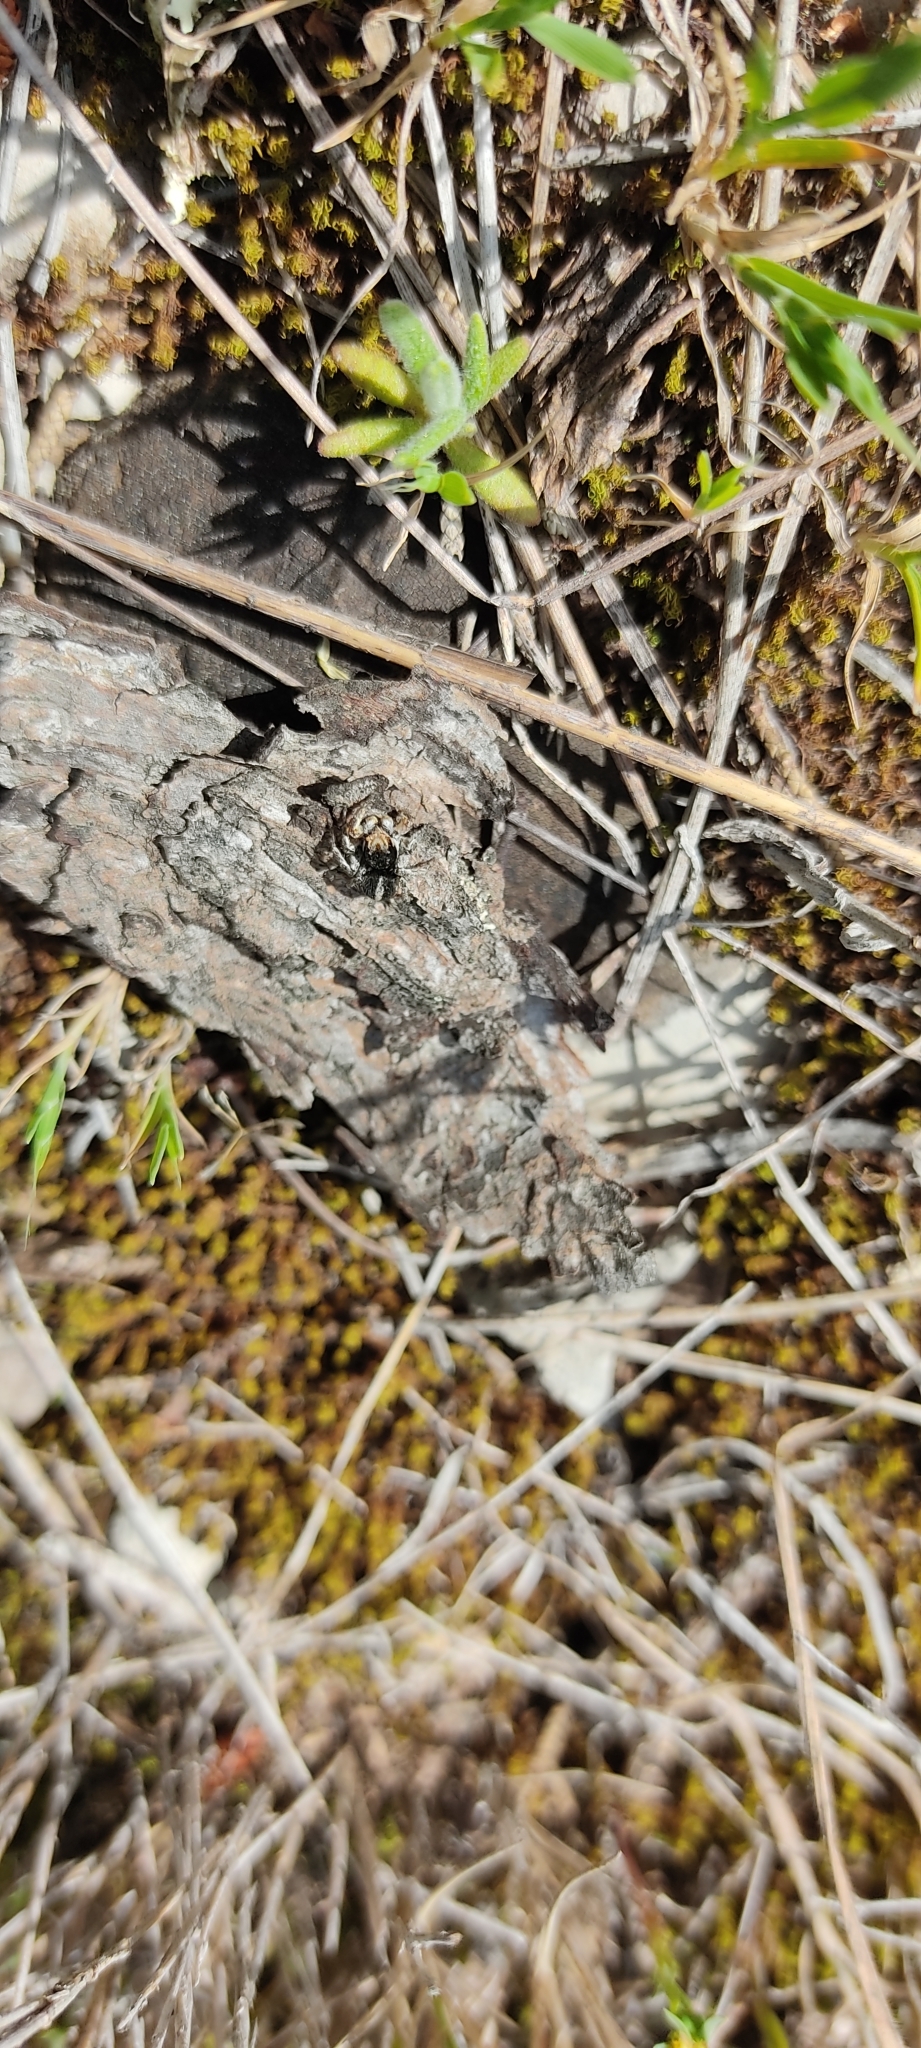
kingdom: Animalia
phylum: Arthropoda
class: Arachnida
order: Araneae
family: Salticidae
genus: Aelurillus
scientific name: Aelurillus v-insignitus
